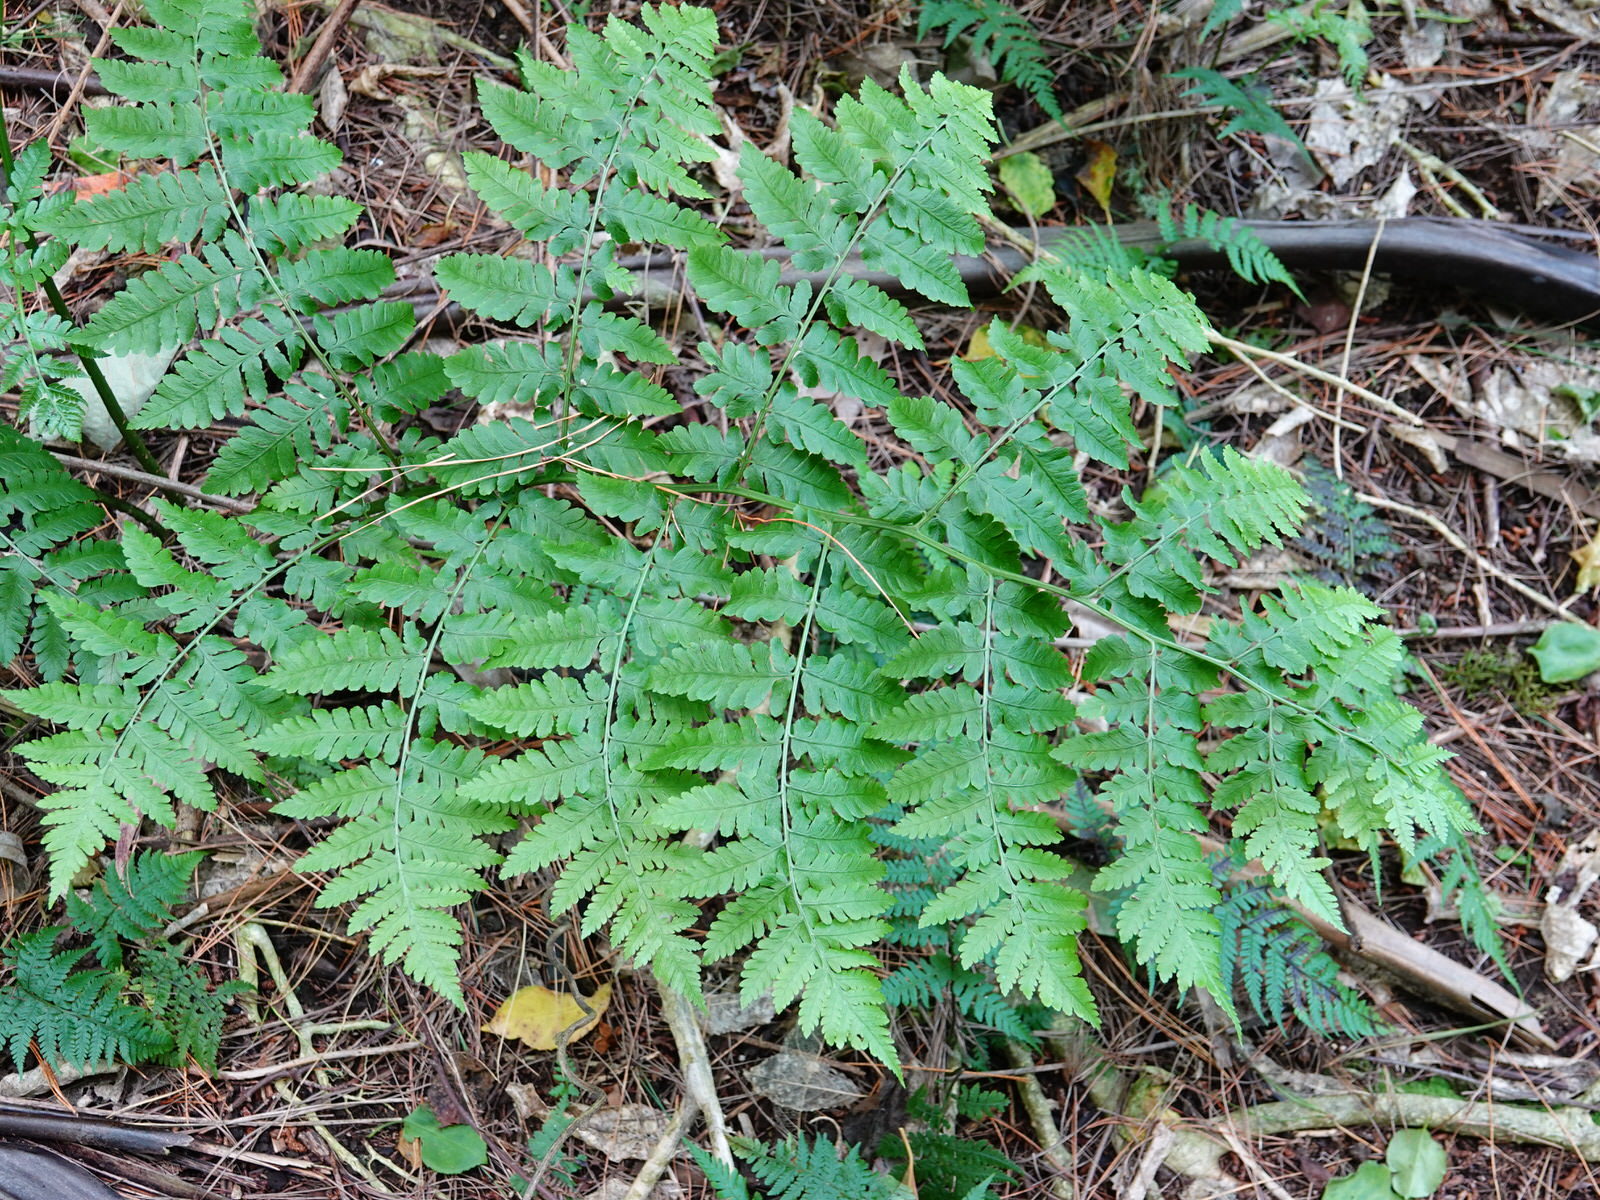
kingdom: Plantae
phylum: Tracheophyta
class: Polypodiopsida
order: Polypodiales
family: Athyriaceae
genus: Diplazium
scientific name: Diplazium australe
